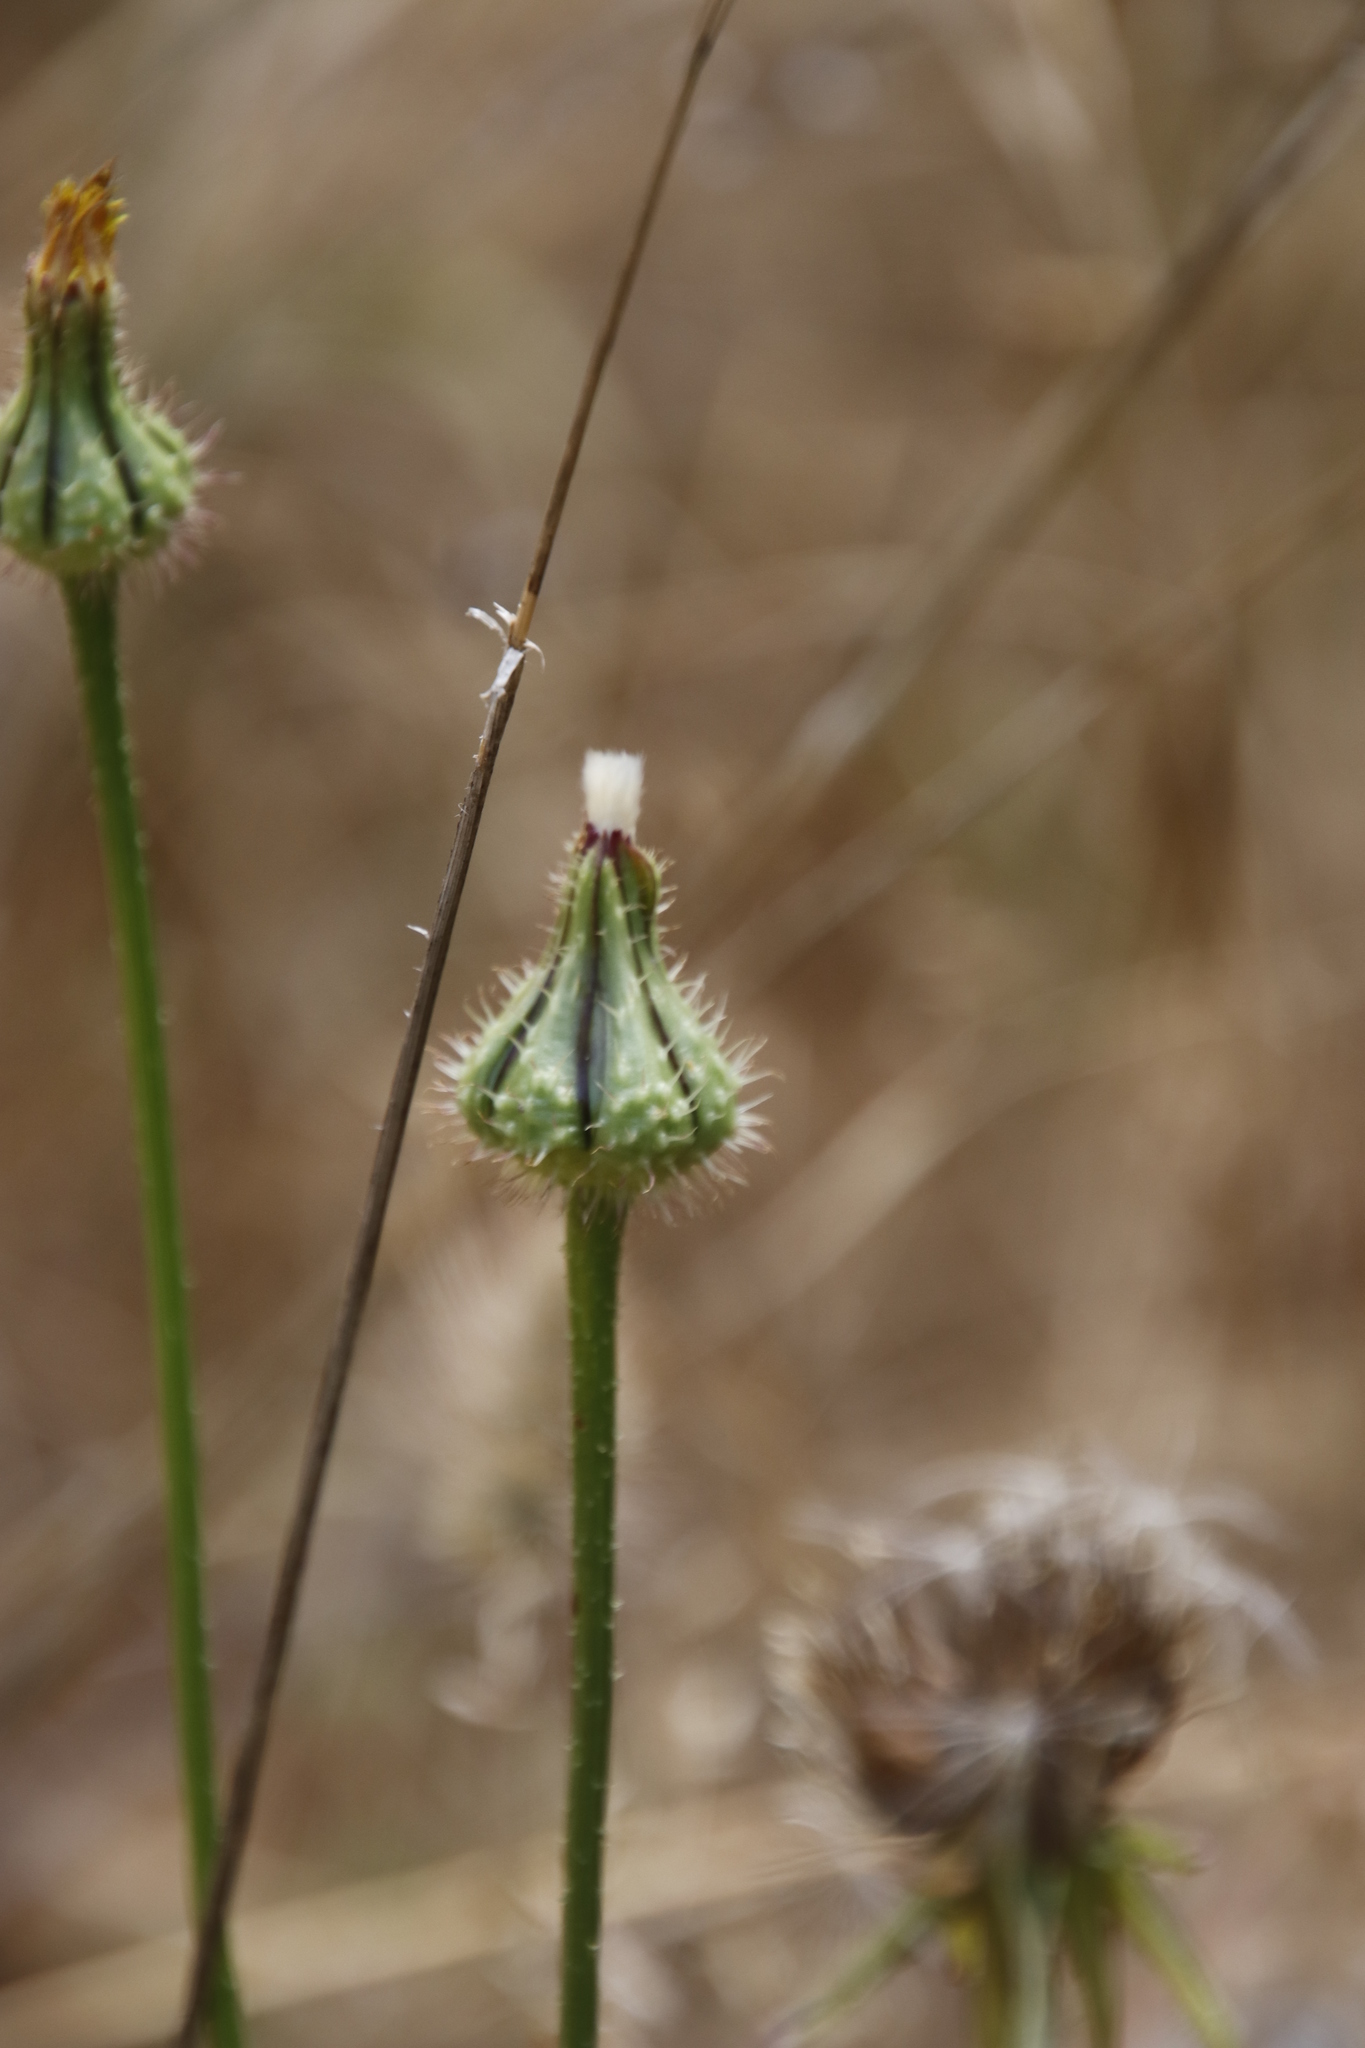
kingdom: Plantae
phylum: Tracheophyta
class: Magnoliopsida
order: Asterales
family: Asteraceae
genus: Urospermum
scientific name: Urospermum picroides
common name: False hawkbit
